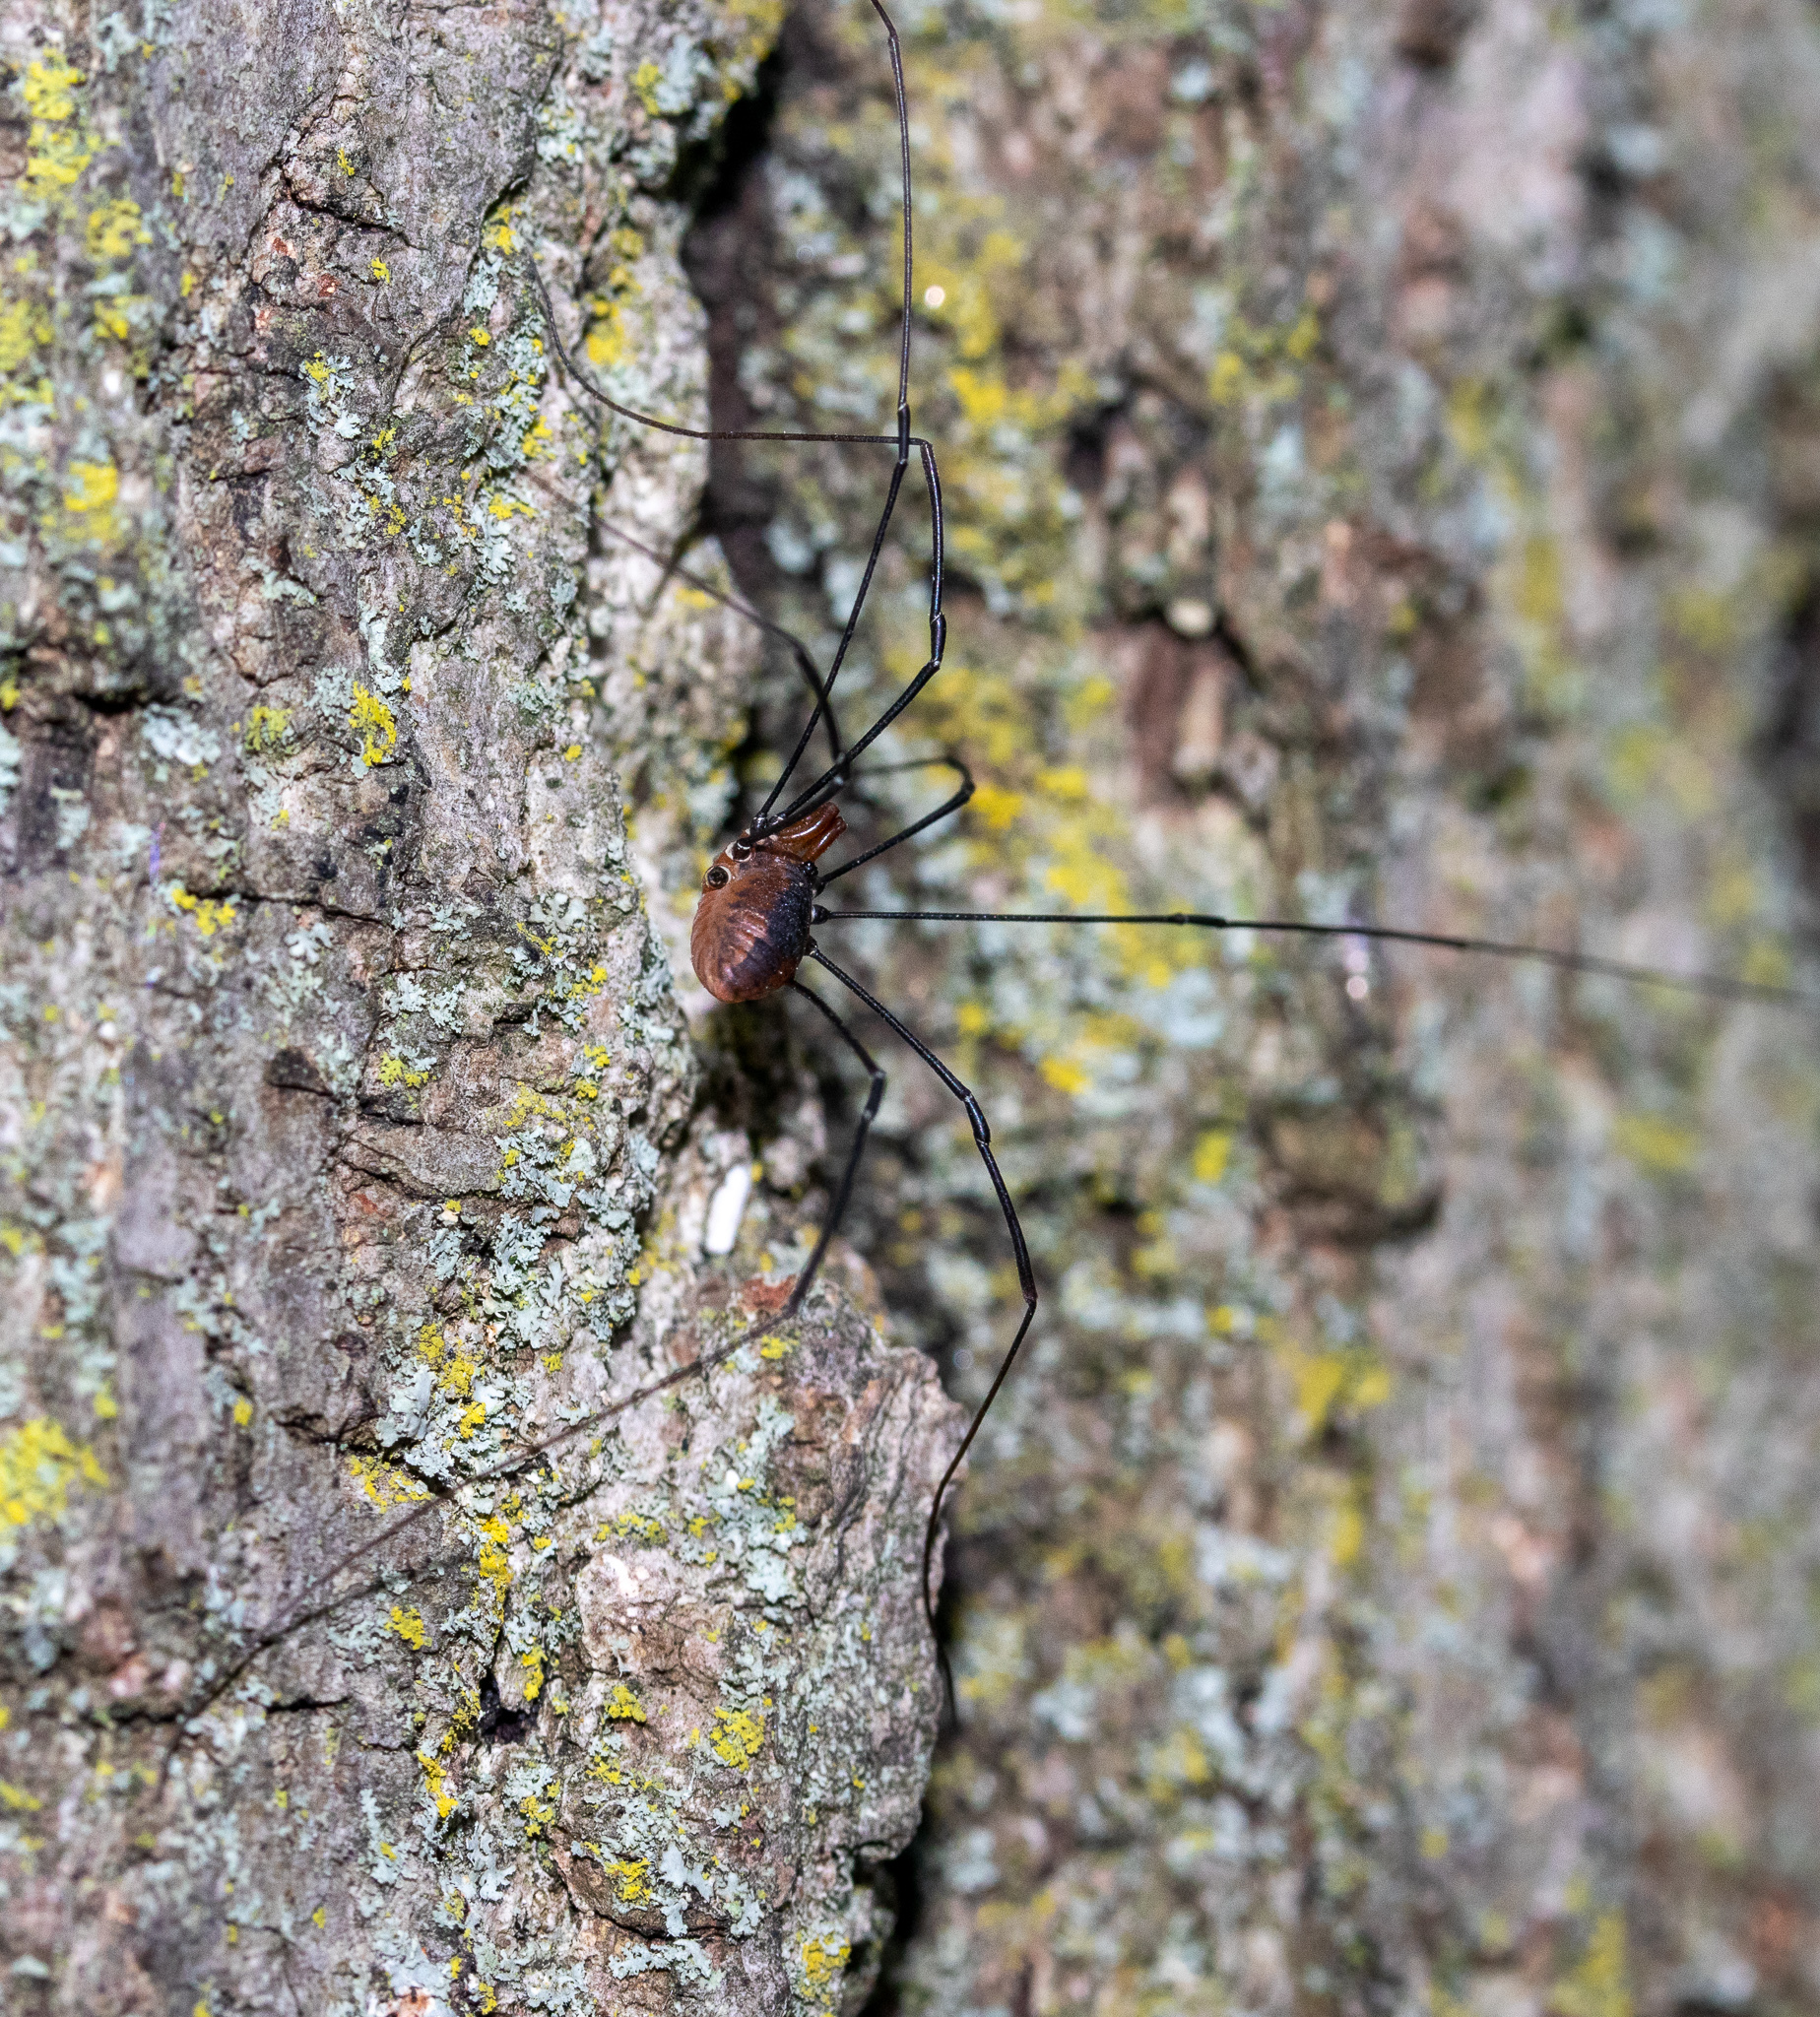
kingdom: Animalia
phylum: Arthropoda
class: Arachnida
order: Opiliones
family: Sclerosomatidae
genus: Leiobunum
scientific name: Leiobunum vittatum
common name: Eastern harvestman
